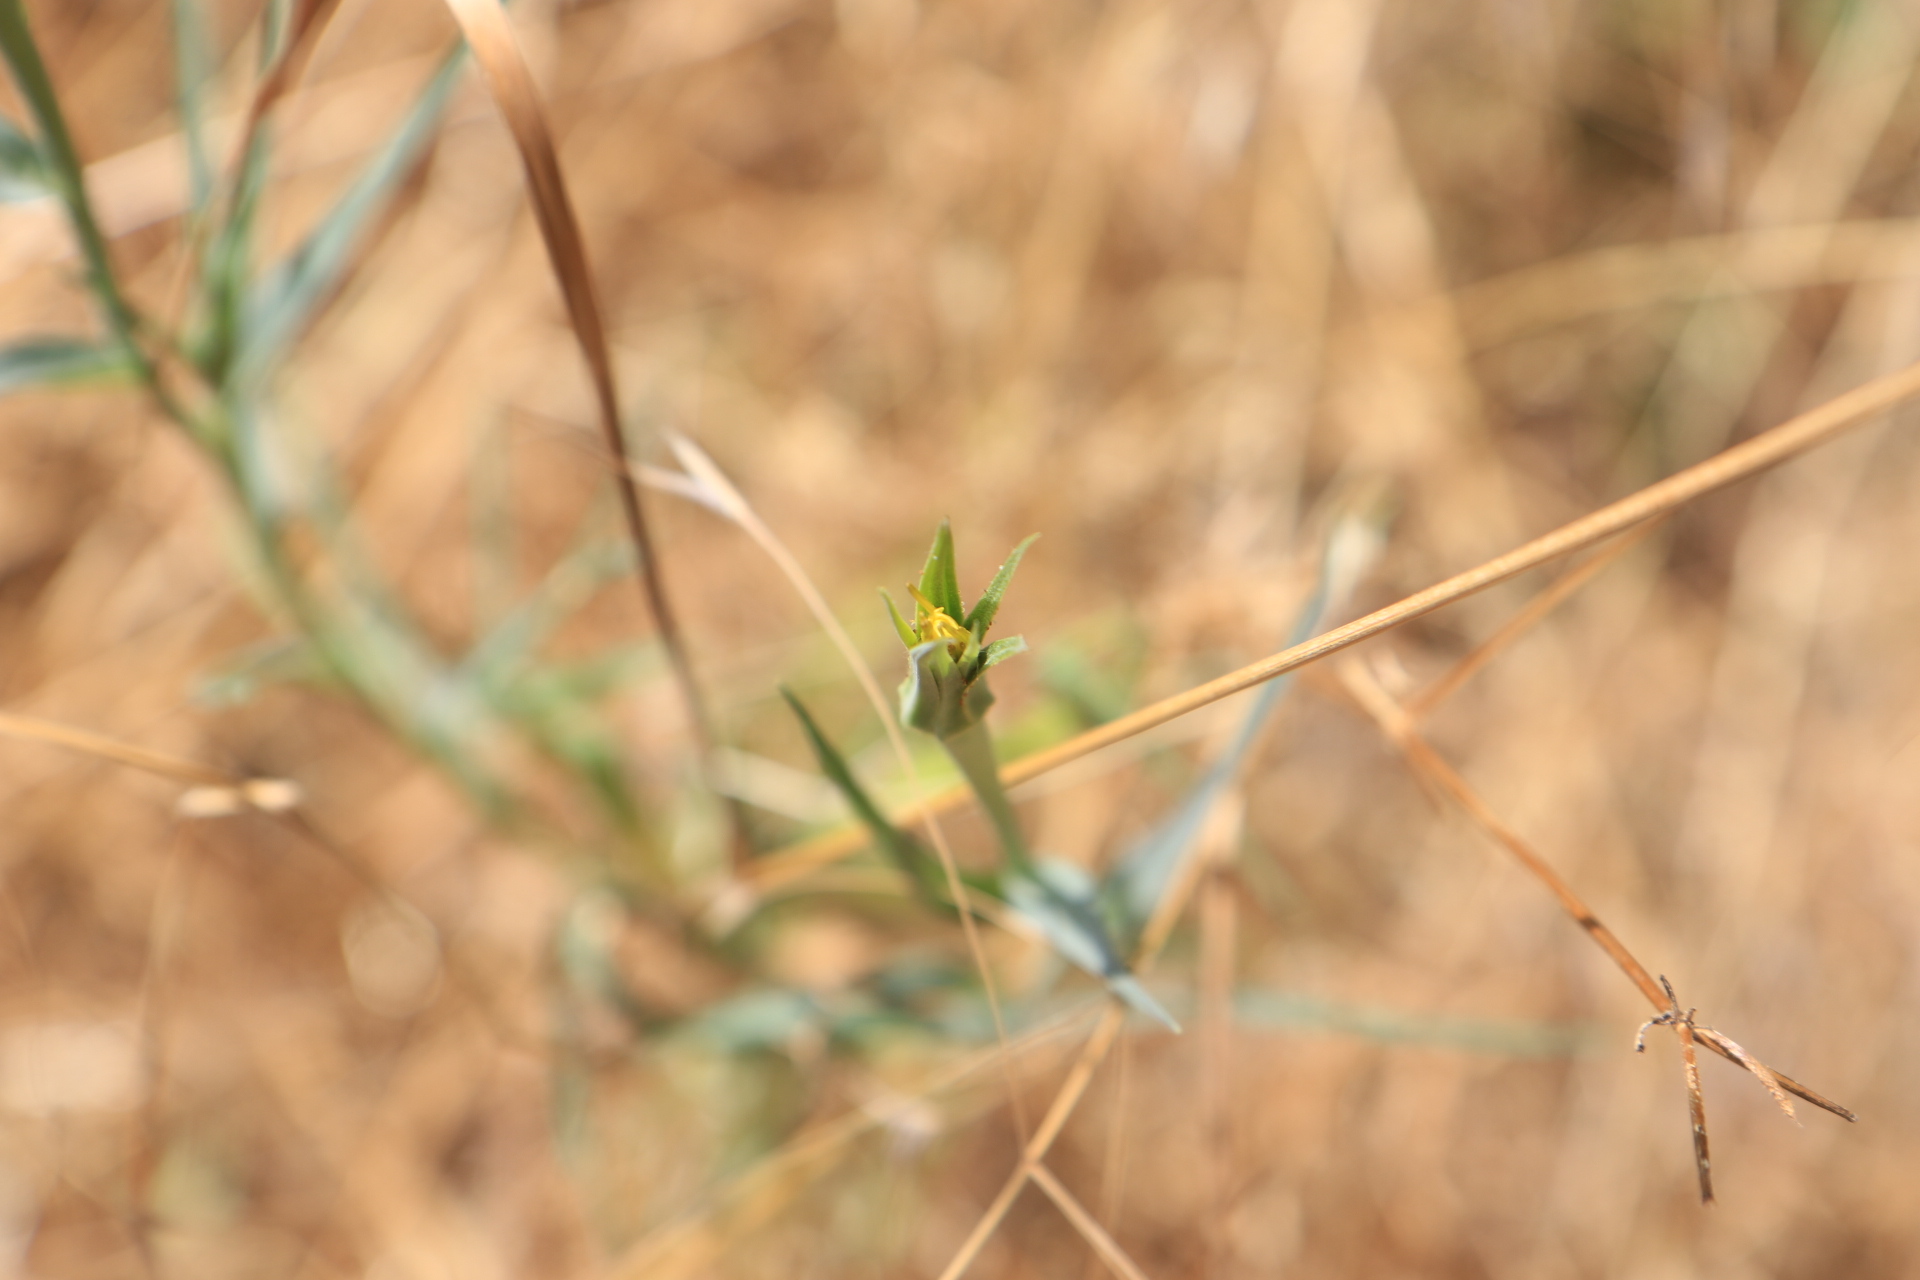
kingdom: Plantae
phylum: Tracheophyta
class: Magnoliopsida
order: Asterales
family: Asteraceae
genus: Tragopogon
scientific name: Tragopogon dubius
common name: Yellow salsify
